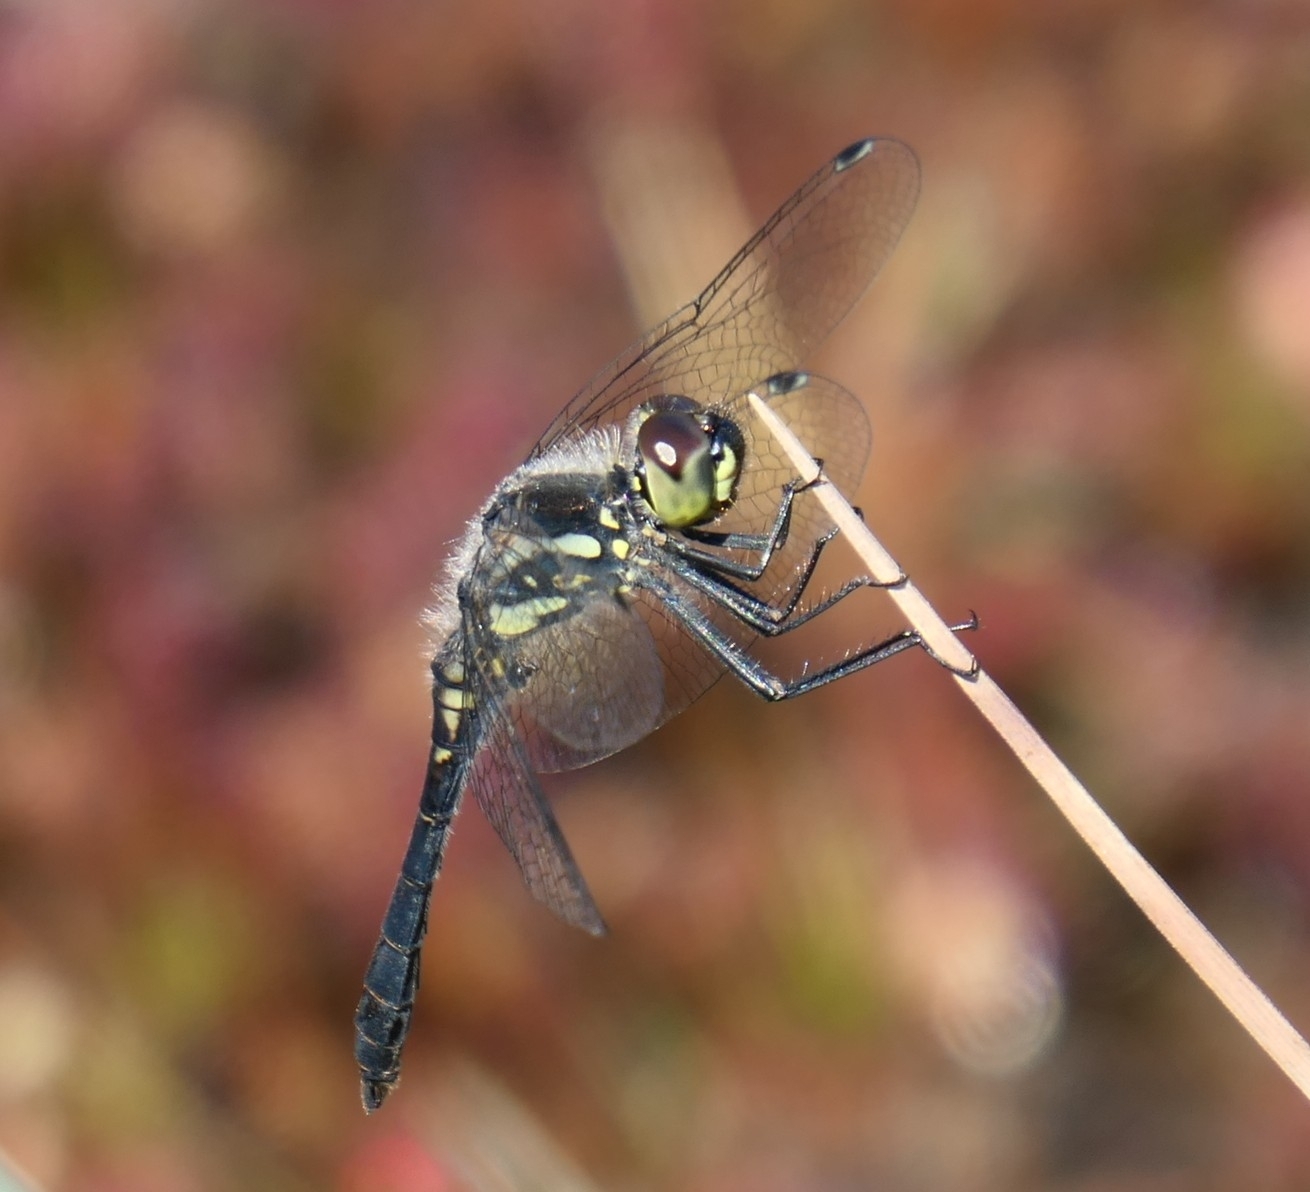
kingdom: Animalia
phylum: Arthropoda
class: Insecta
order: Odonata
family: Libellulidae
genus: Sympetrum
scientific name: Sympetrum danae
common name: Black darter
